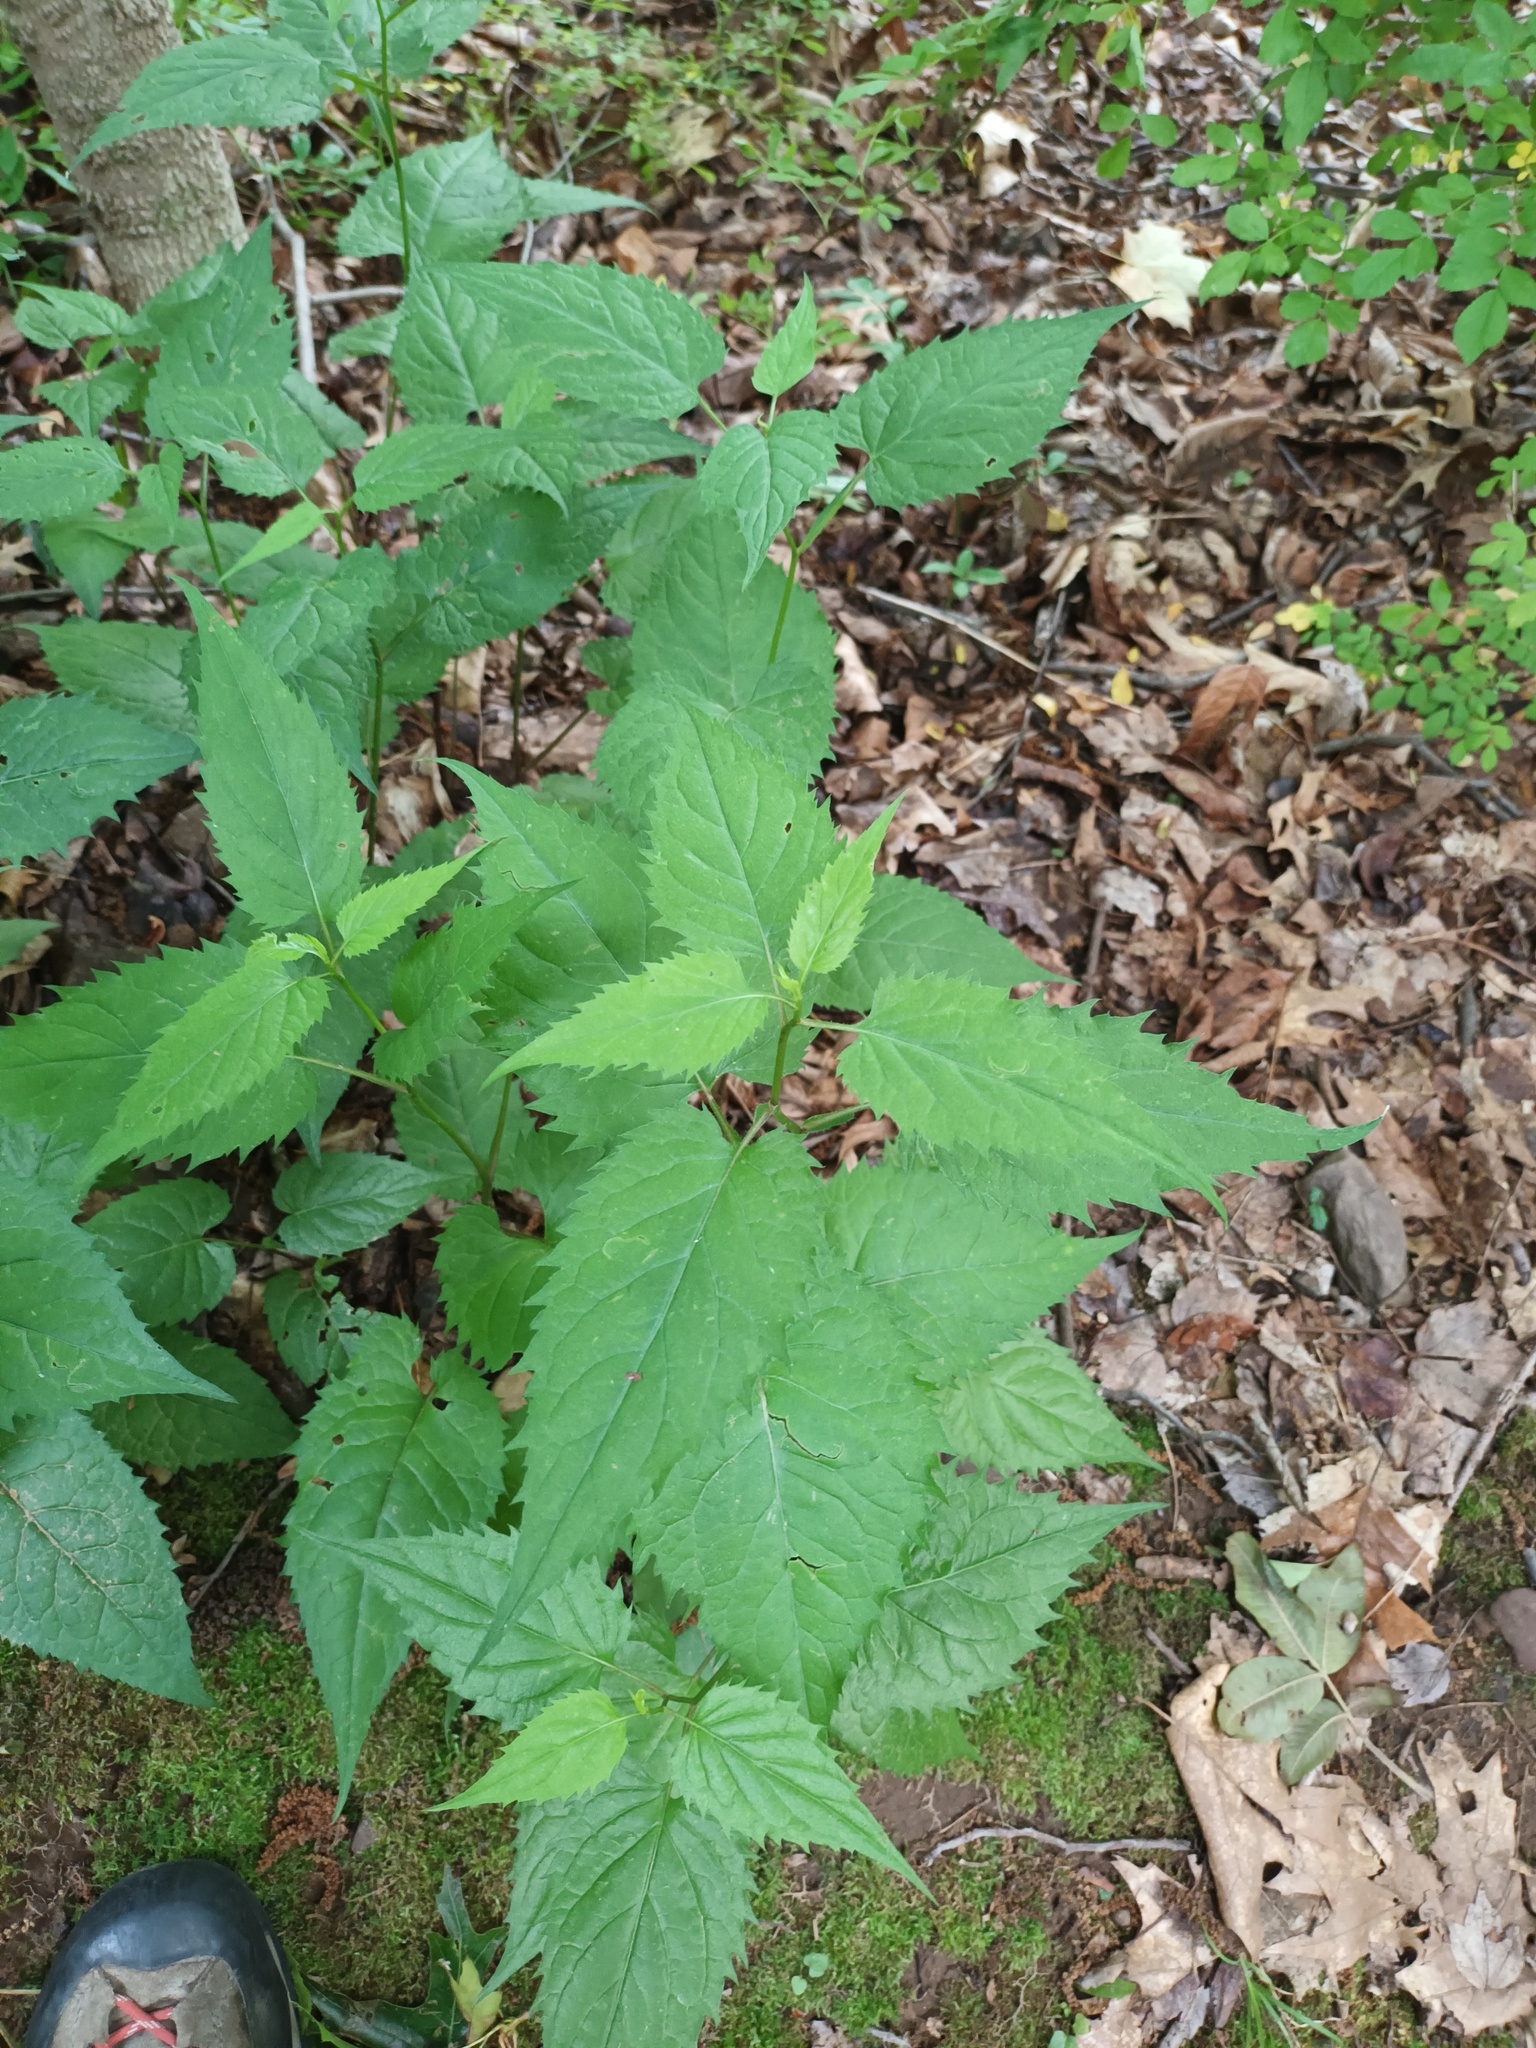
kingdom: Plantae
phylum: Tracheophyta
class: Magnoliopsida
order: Asterales
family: Asteraceae
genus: Eurybia
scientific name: Eurybia divaricata
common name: White wood aster
